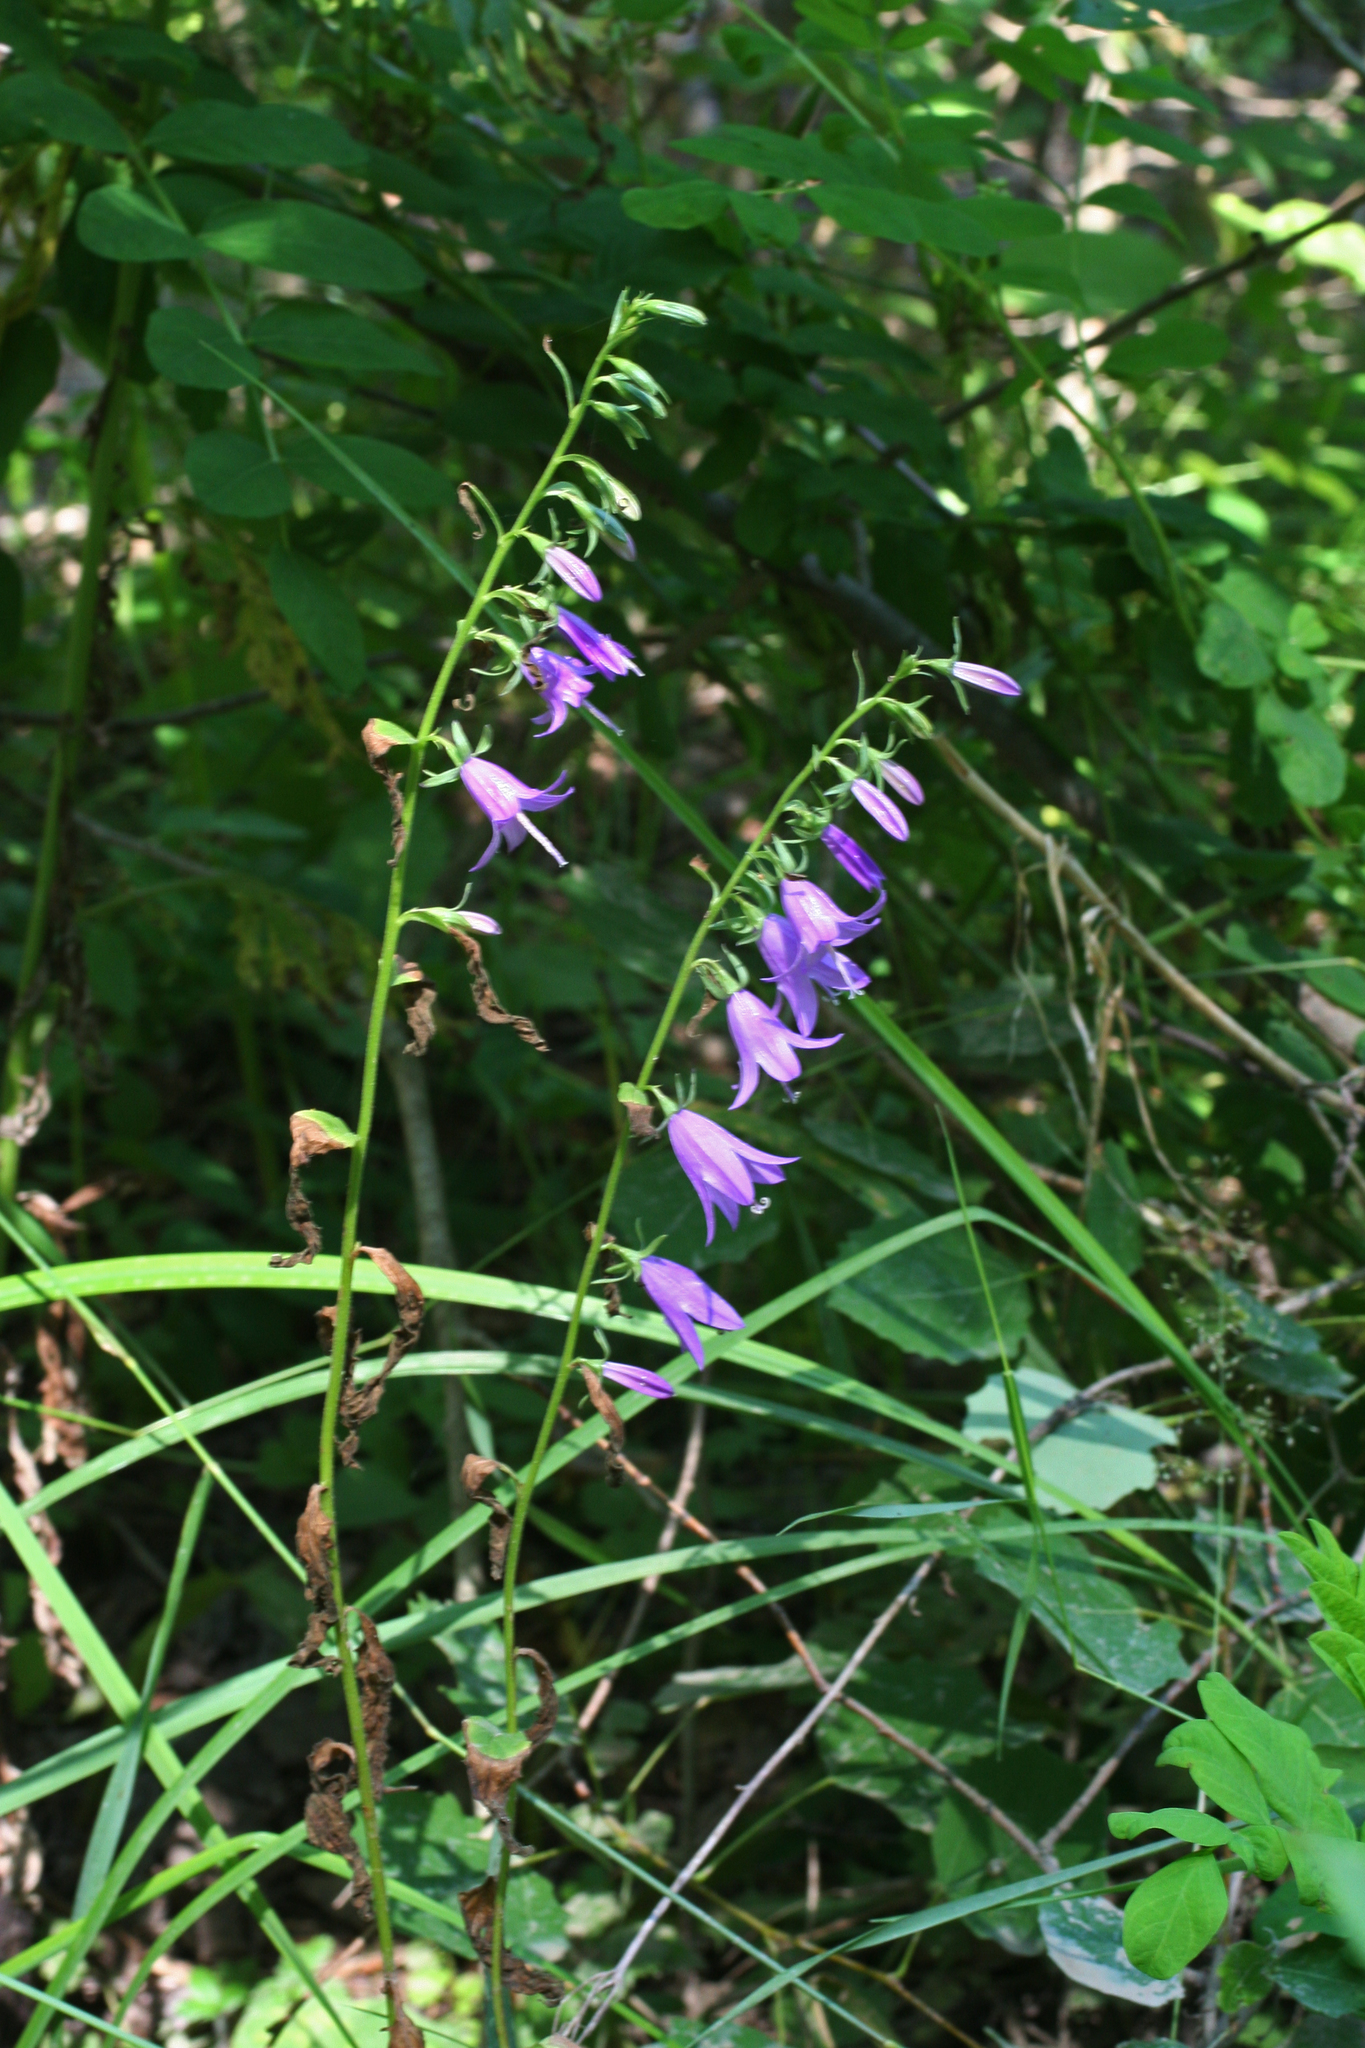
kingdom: Plantae
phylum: Tracheophyta
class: Magnoliopsida
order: Asterales
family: Campanulaceae
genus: Campanula
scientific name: Campanula rapunculoides
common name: Creeping bellflower
